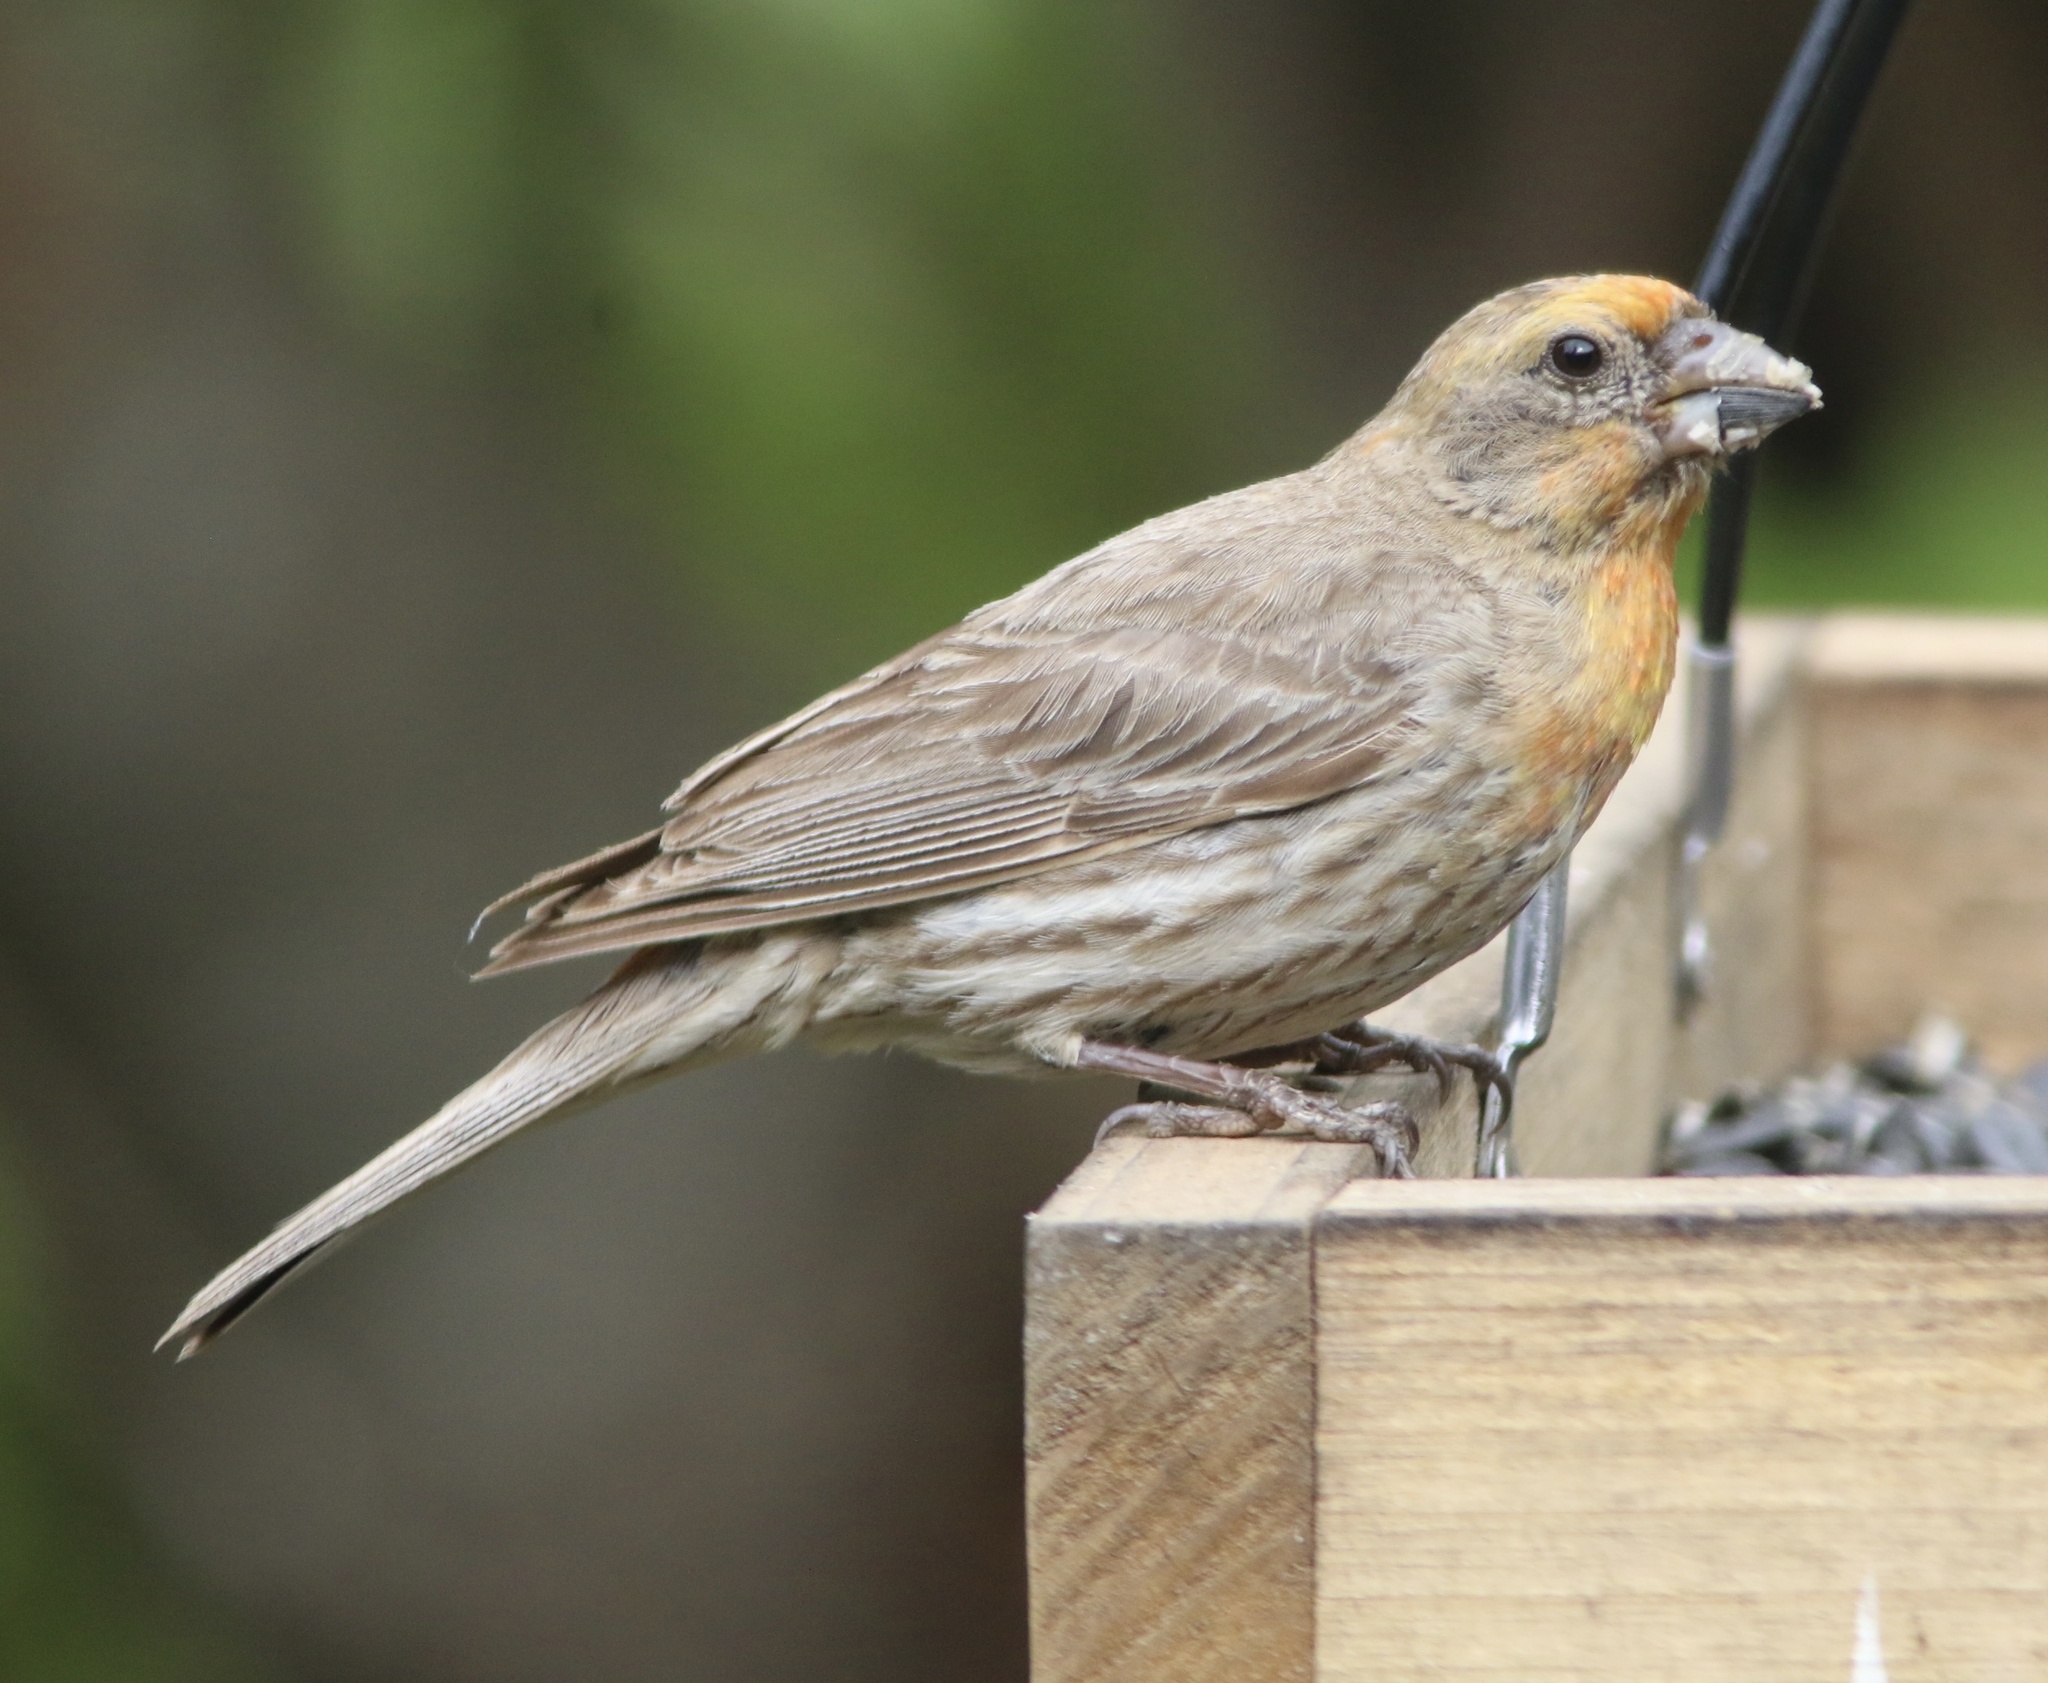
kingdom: Animalia
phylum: Chordata
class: Aves
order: Passeriformes
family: Fringillidae
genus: Haemorhous
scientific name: Haemorhous mexicanus
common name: House finch
